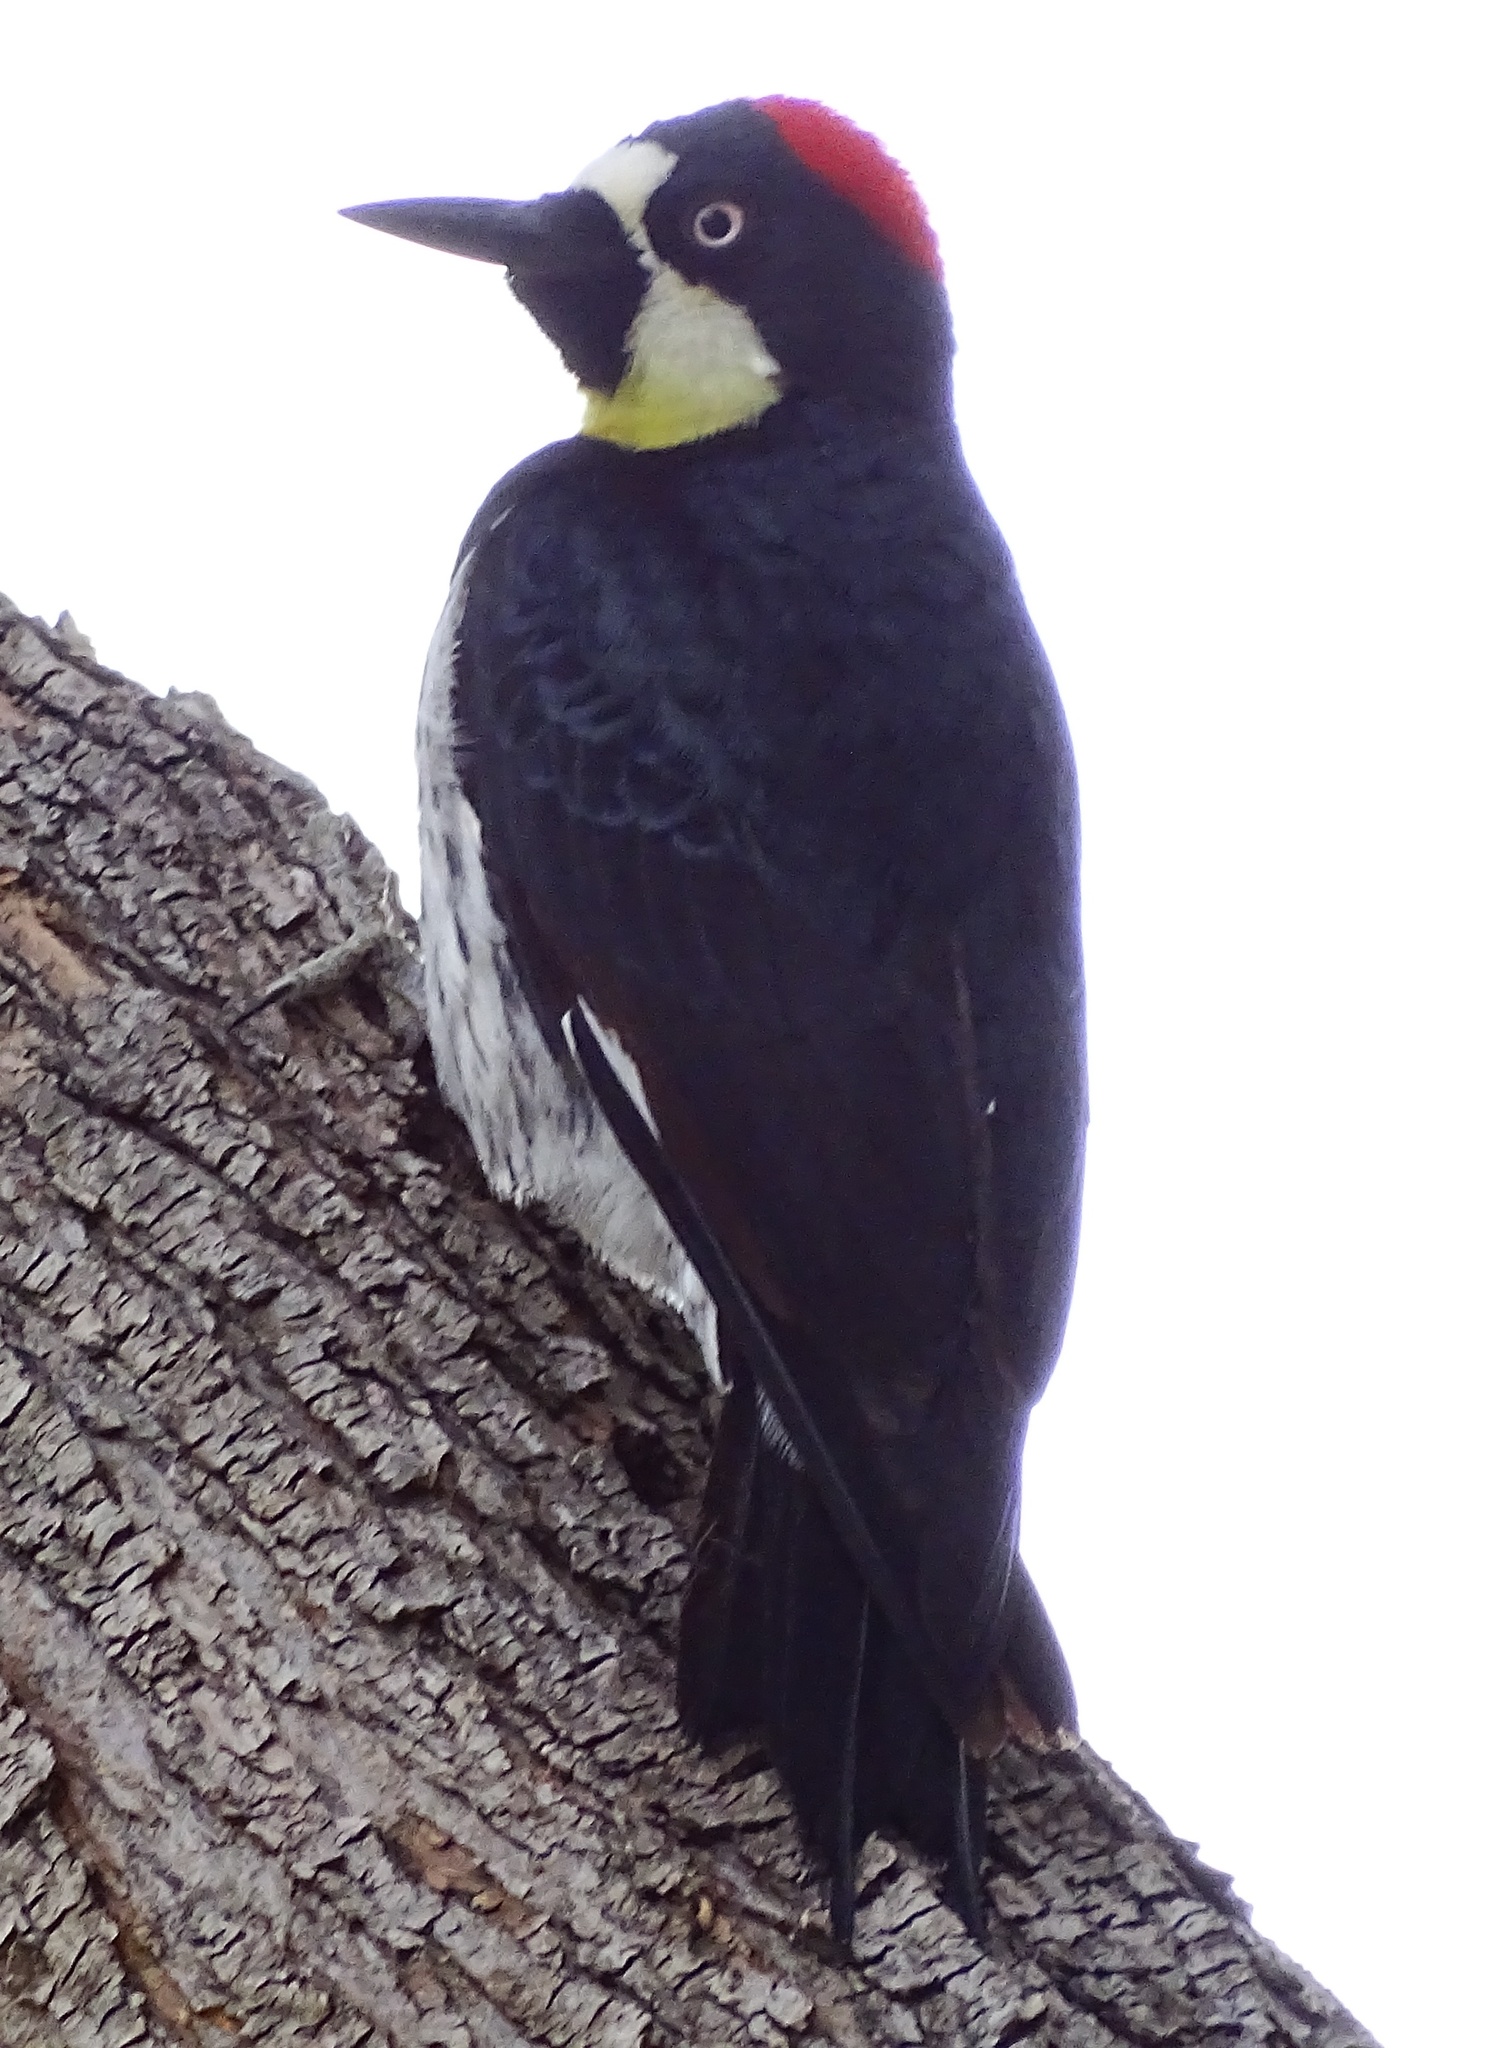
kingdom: Animalia
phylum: Chordata
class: Aves
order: Piciformes
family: Picidae
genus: Melanerpes
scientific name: Melanerpes formicivorus
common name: Acorn woodpecker
